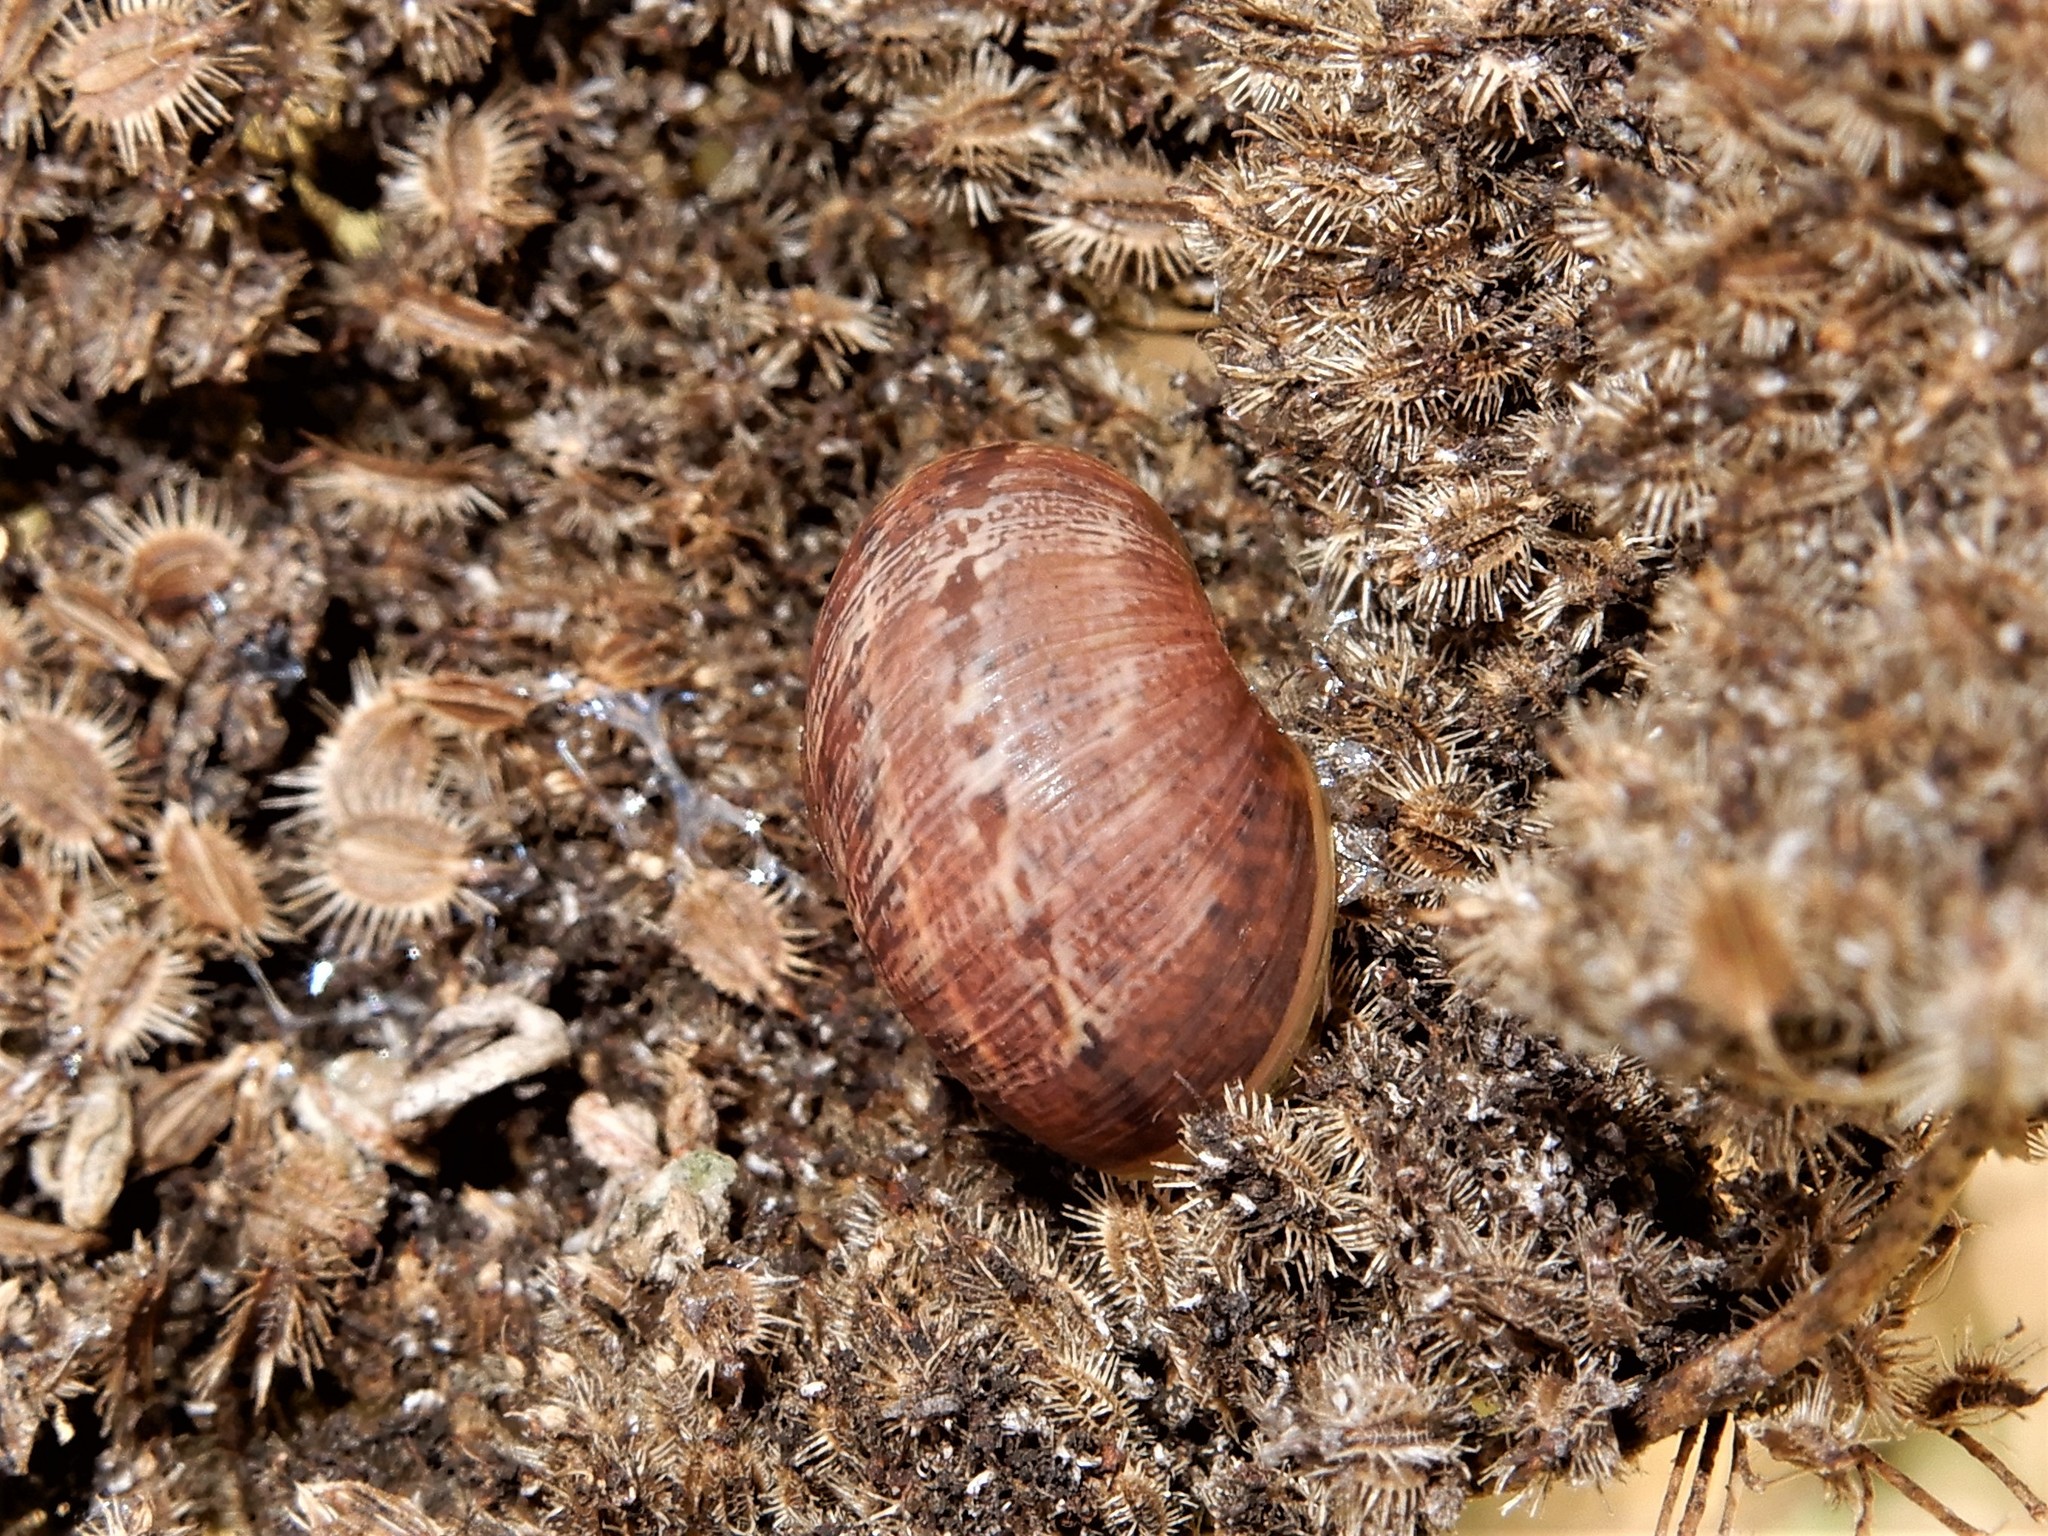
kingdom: Animalia
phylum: Mollusca
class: Gastropoda
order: Stylommatophora
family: Helicidae
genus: Cornu
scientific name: Cornu aspersum
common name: Brown garden snail
